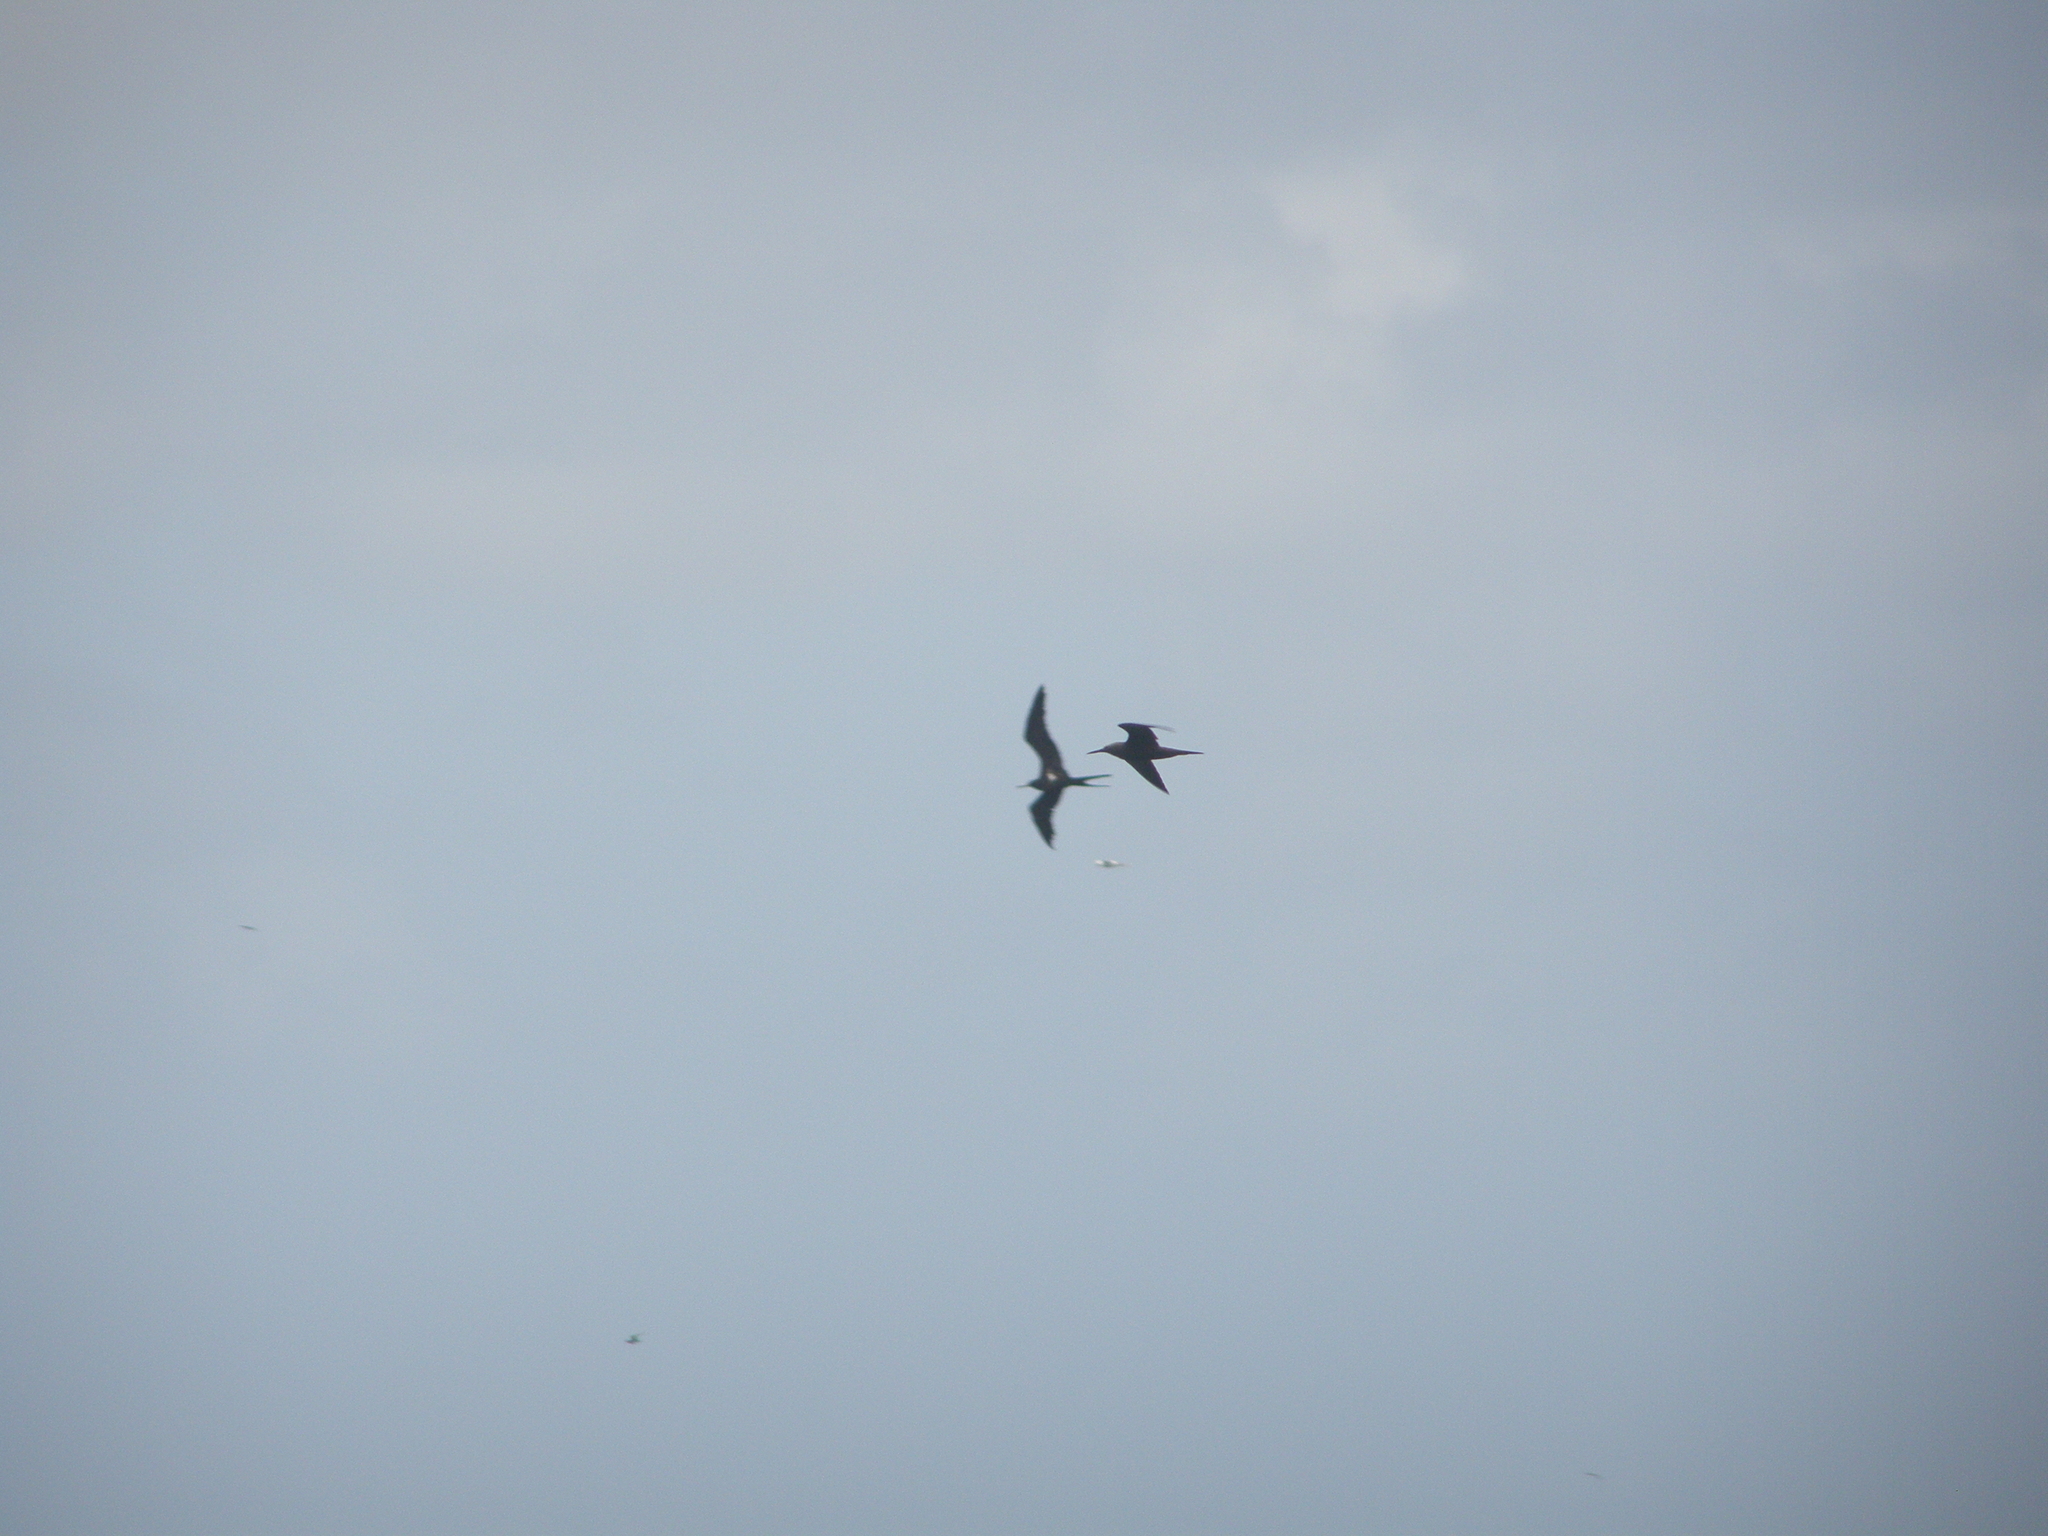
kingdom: Animalia
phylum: Chordata
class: Aves
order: Charadriiformes
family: Laridae
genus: Anous
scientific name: Anous
